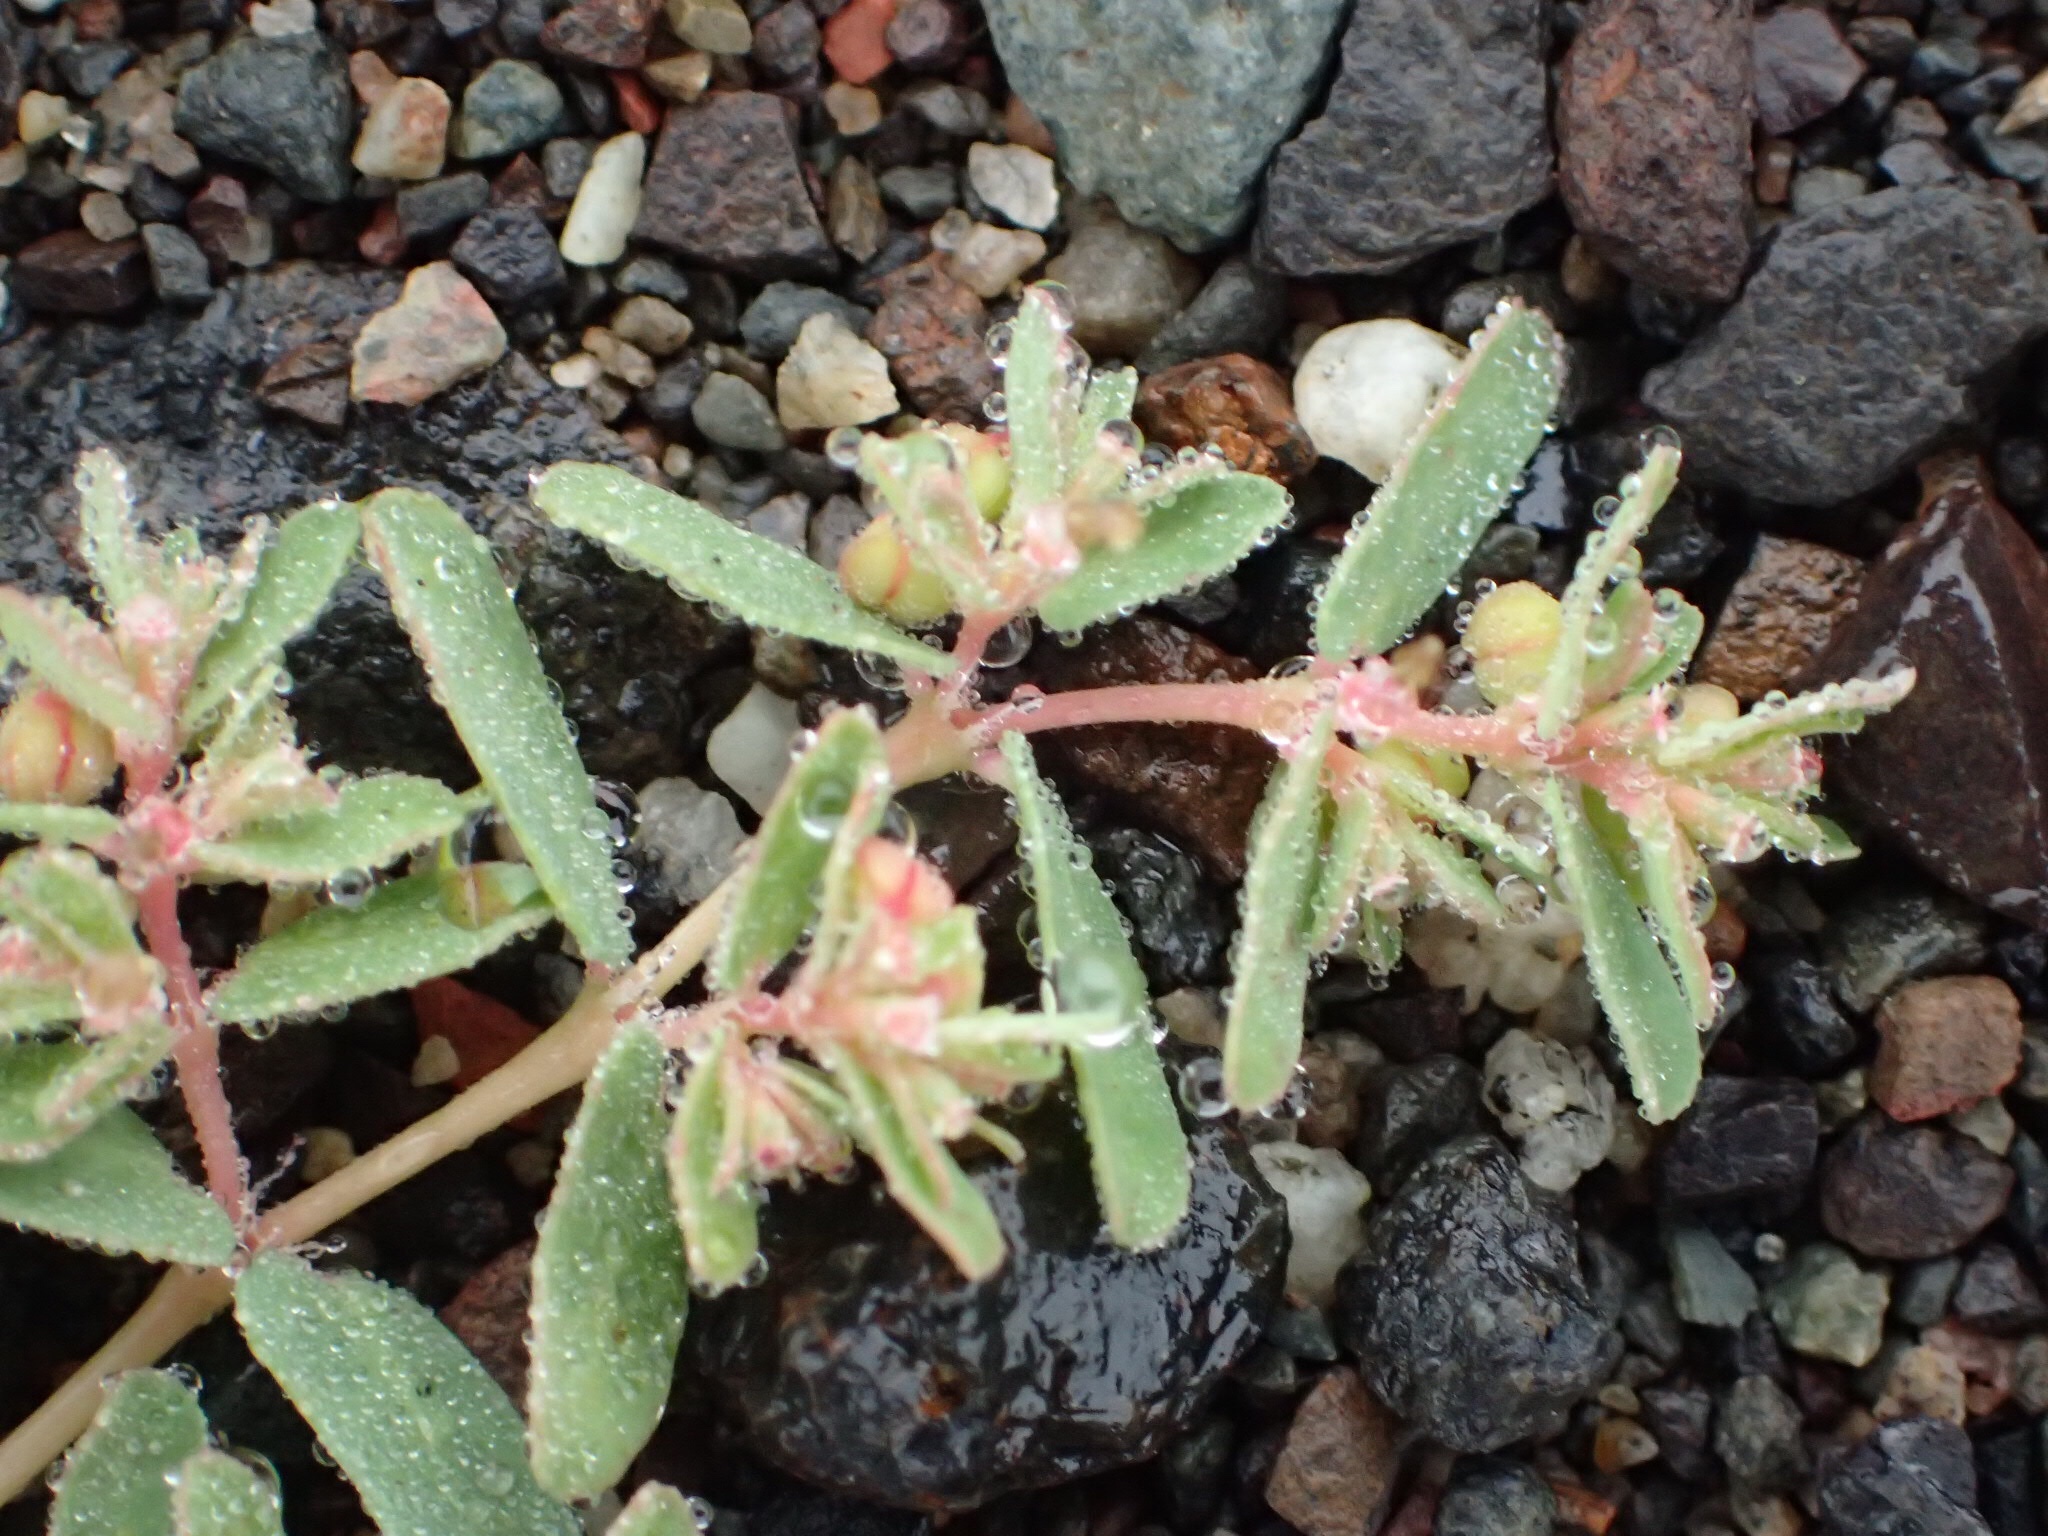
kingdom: Plantae
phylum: Tracheophyta
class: Magnoliopsida
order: Malpighiales
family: Euphorbiaceae
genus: Euphorbia
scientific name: Euphorbia glyptosperma
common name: Corrugate-seeded spurge
